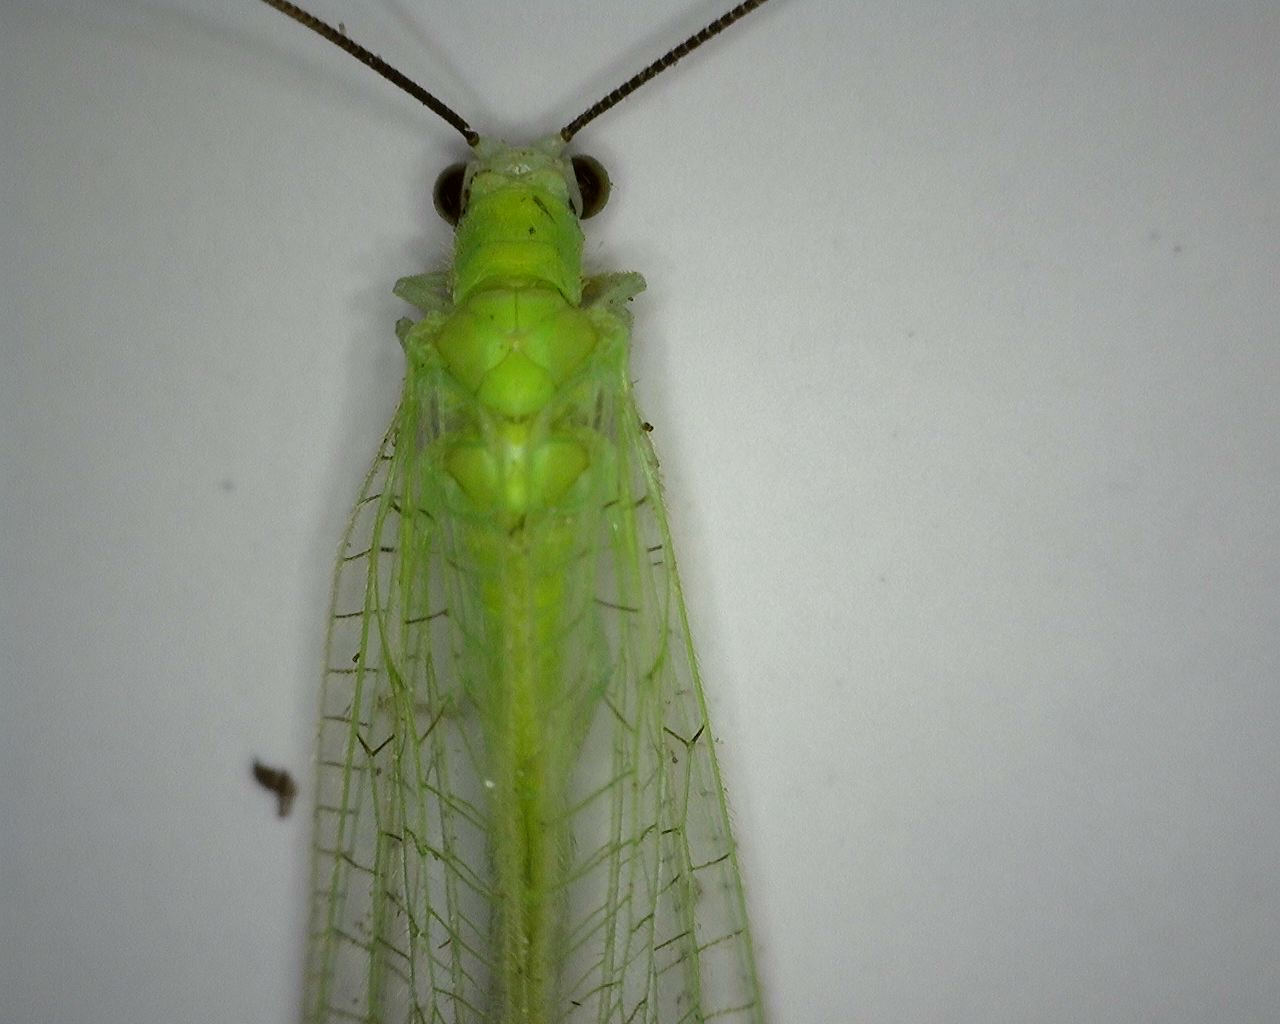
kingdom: Animalia
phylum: Arthropoda
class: Insecta
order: Neuroptera
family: Chrysopidae
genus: Chrysopa
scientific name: Chrysopa nigricornis
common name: Black-horned green lacewing
